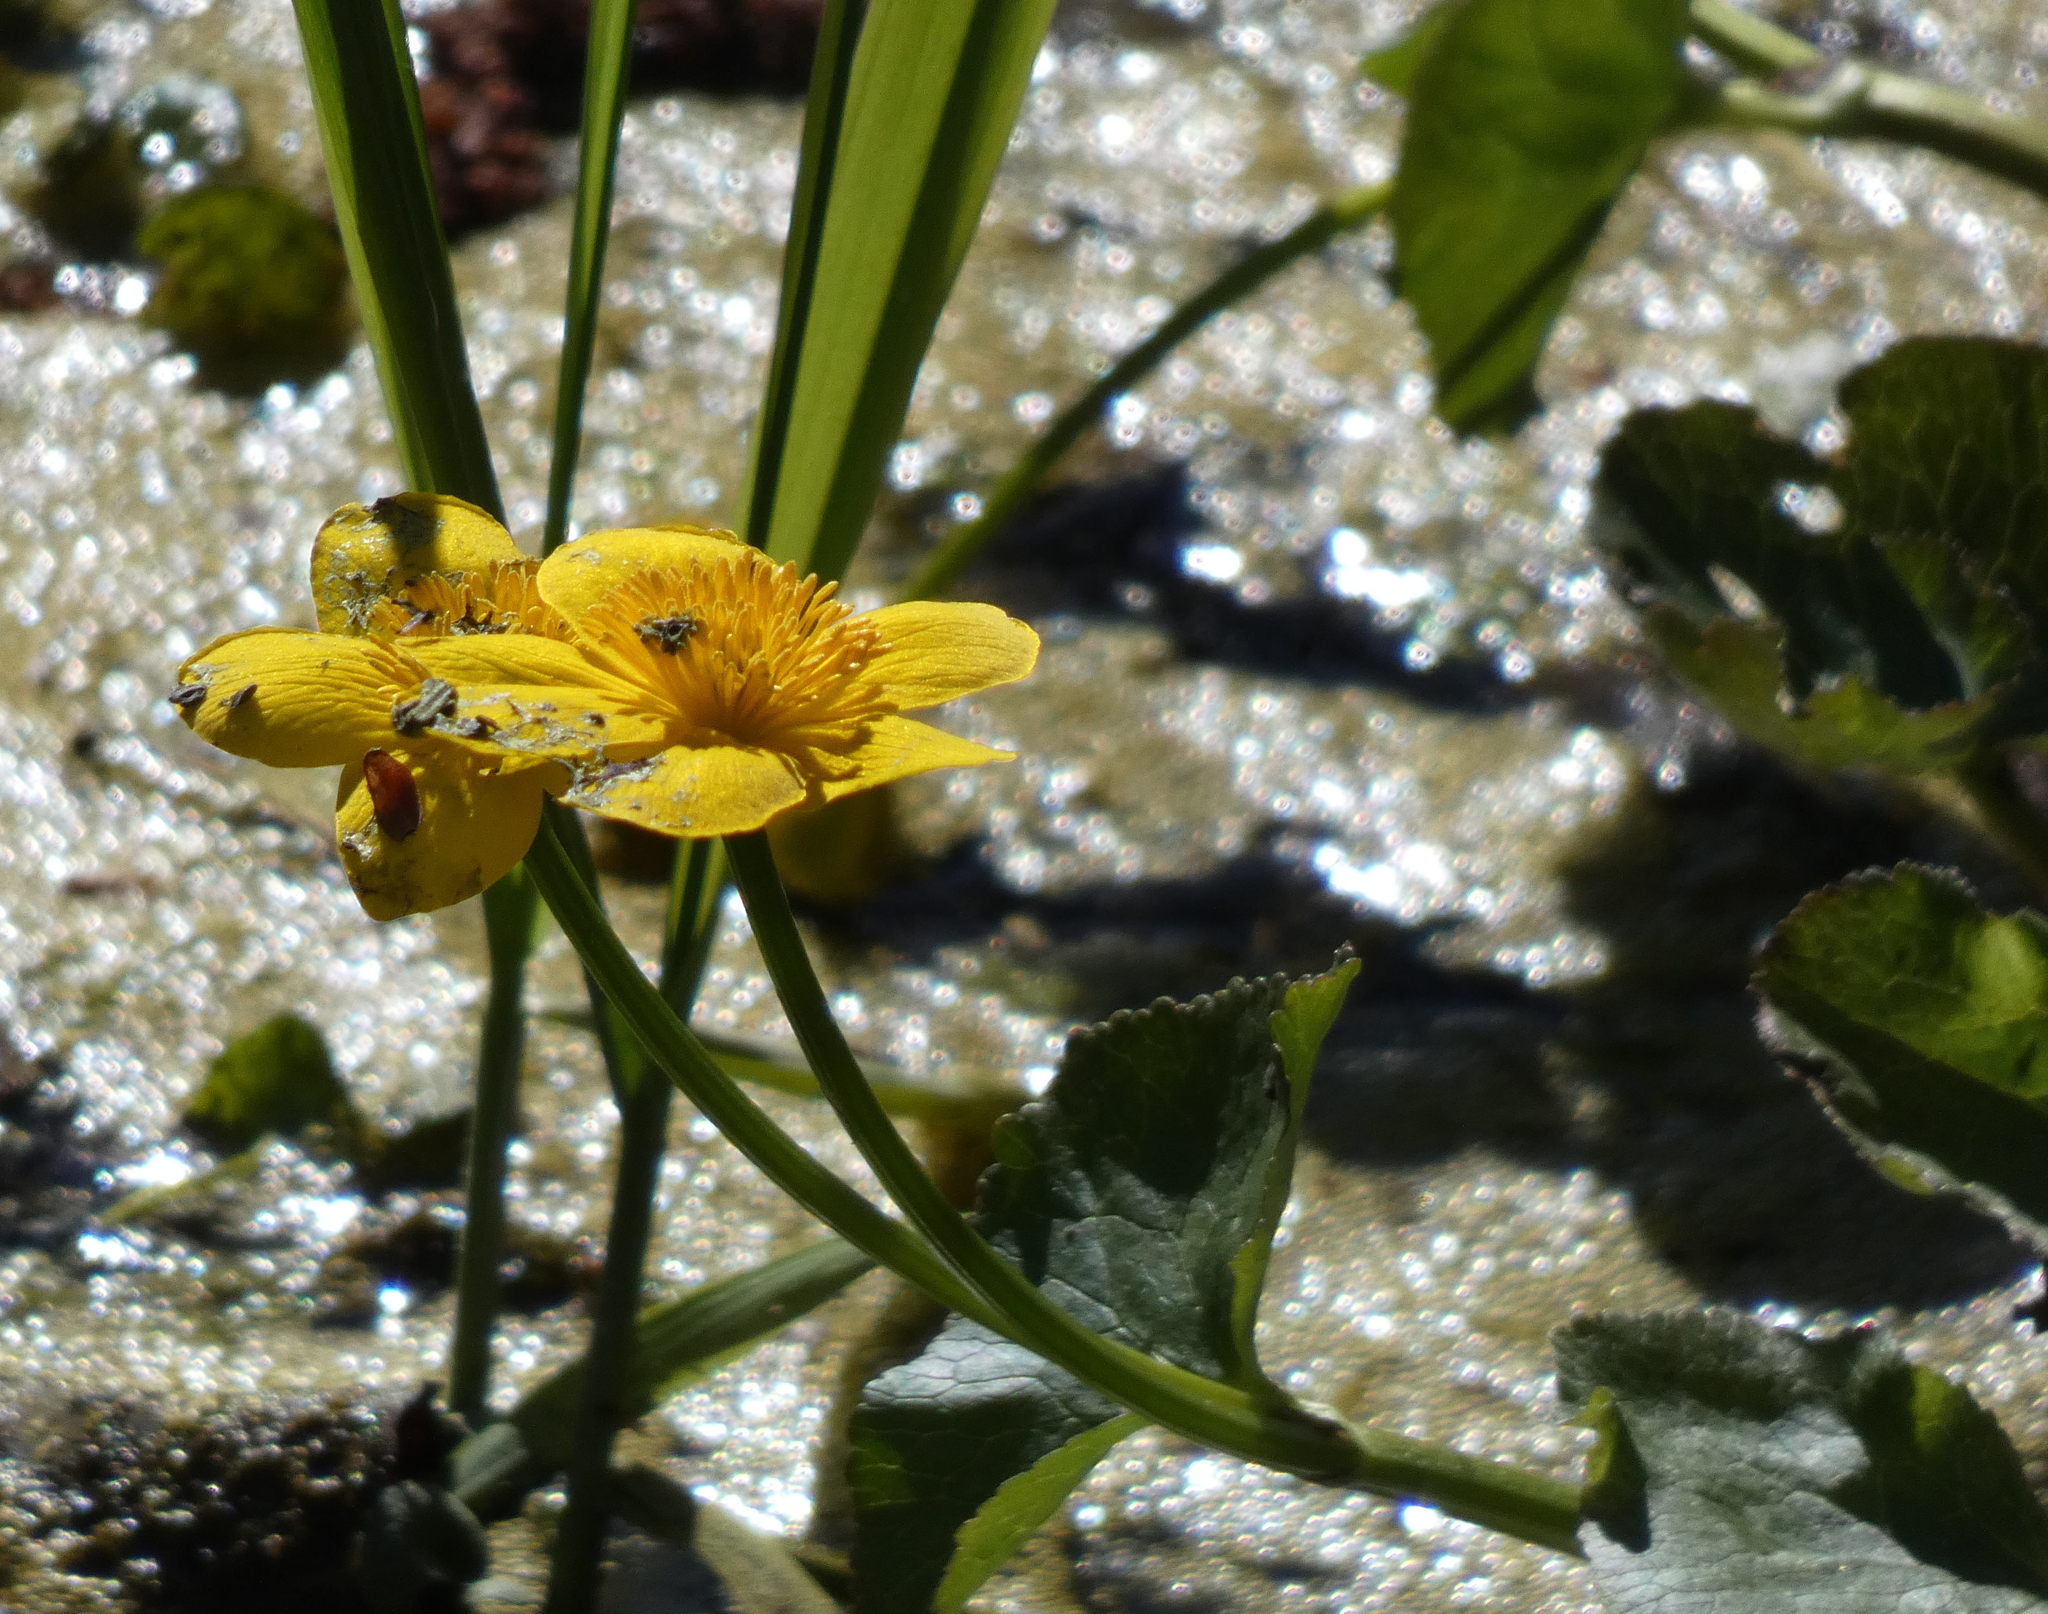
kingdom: Plantae
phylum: Tracheophyta
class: Magnoliopsida
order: Ranunculales
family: Ranunculaceae
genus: Caltha
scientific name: Caltha palustris
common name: Marsh marigold
